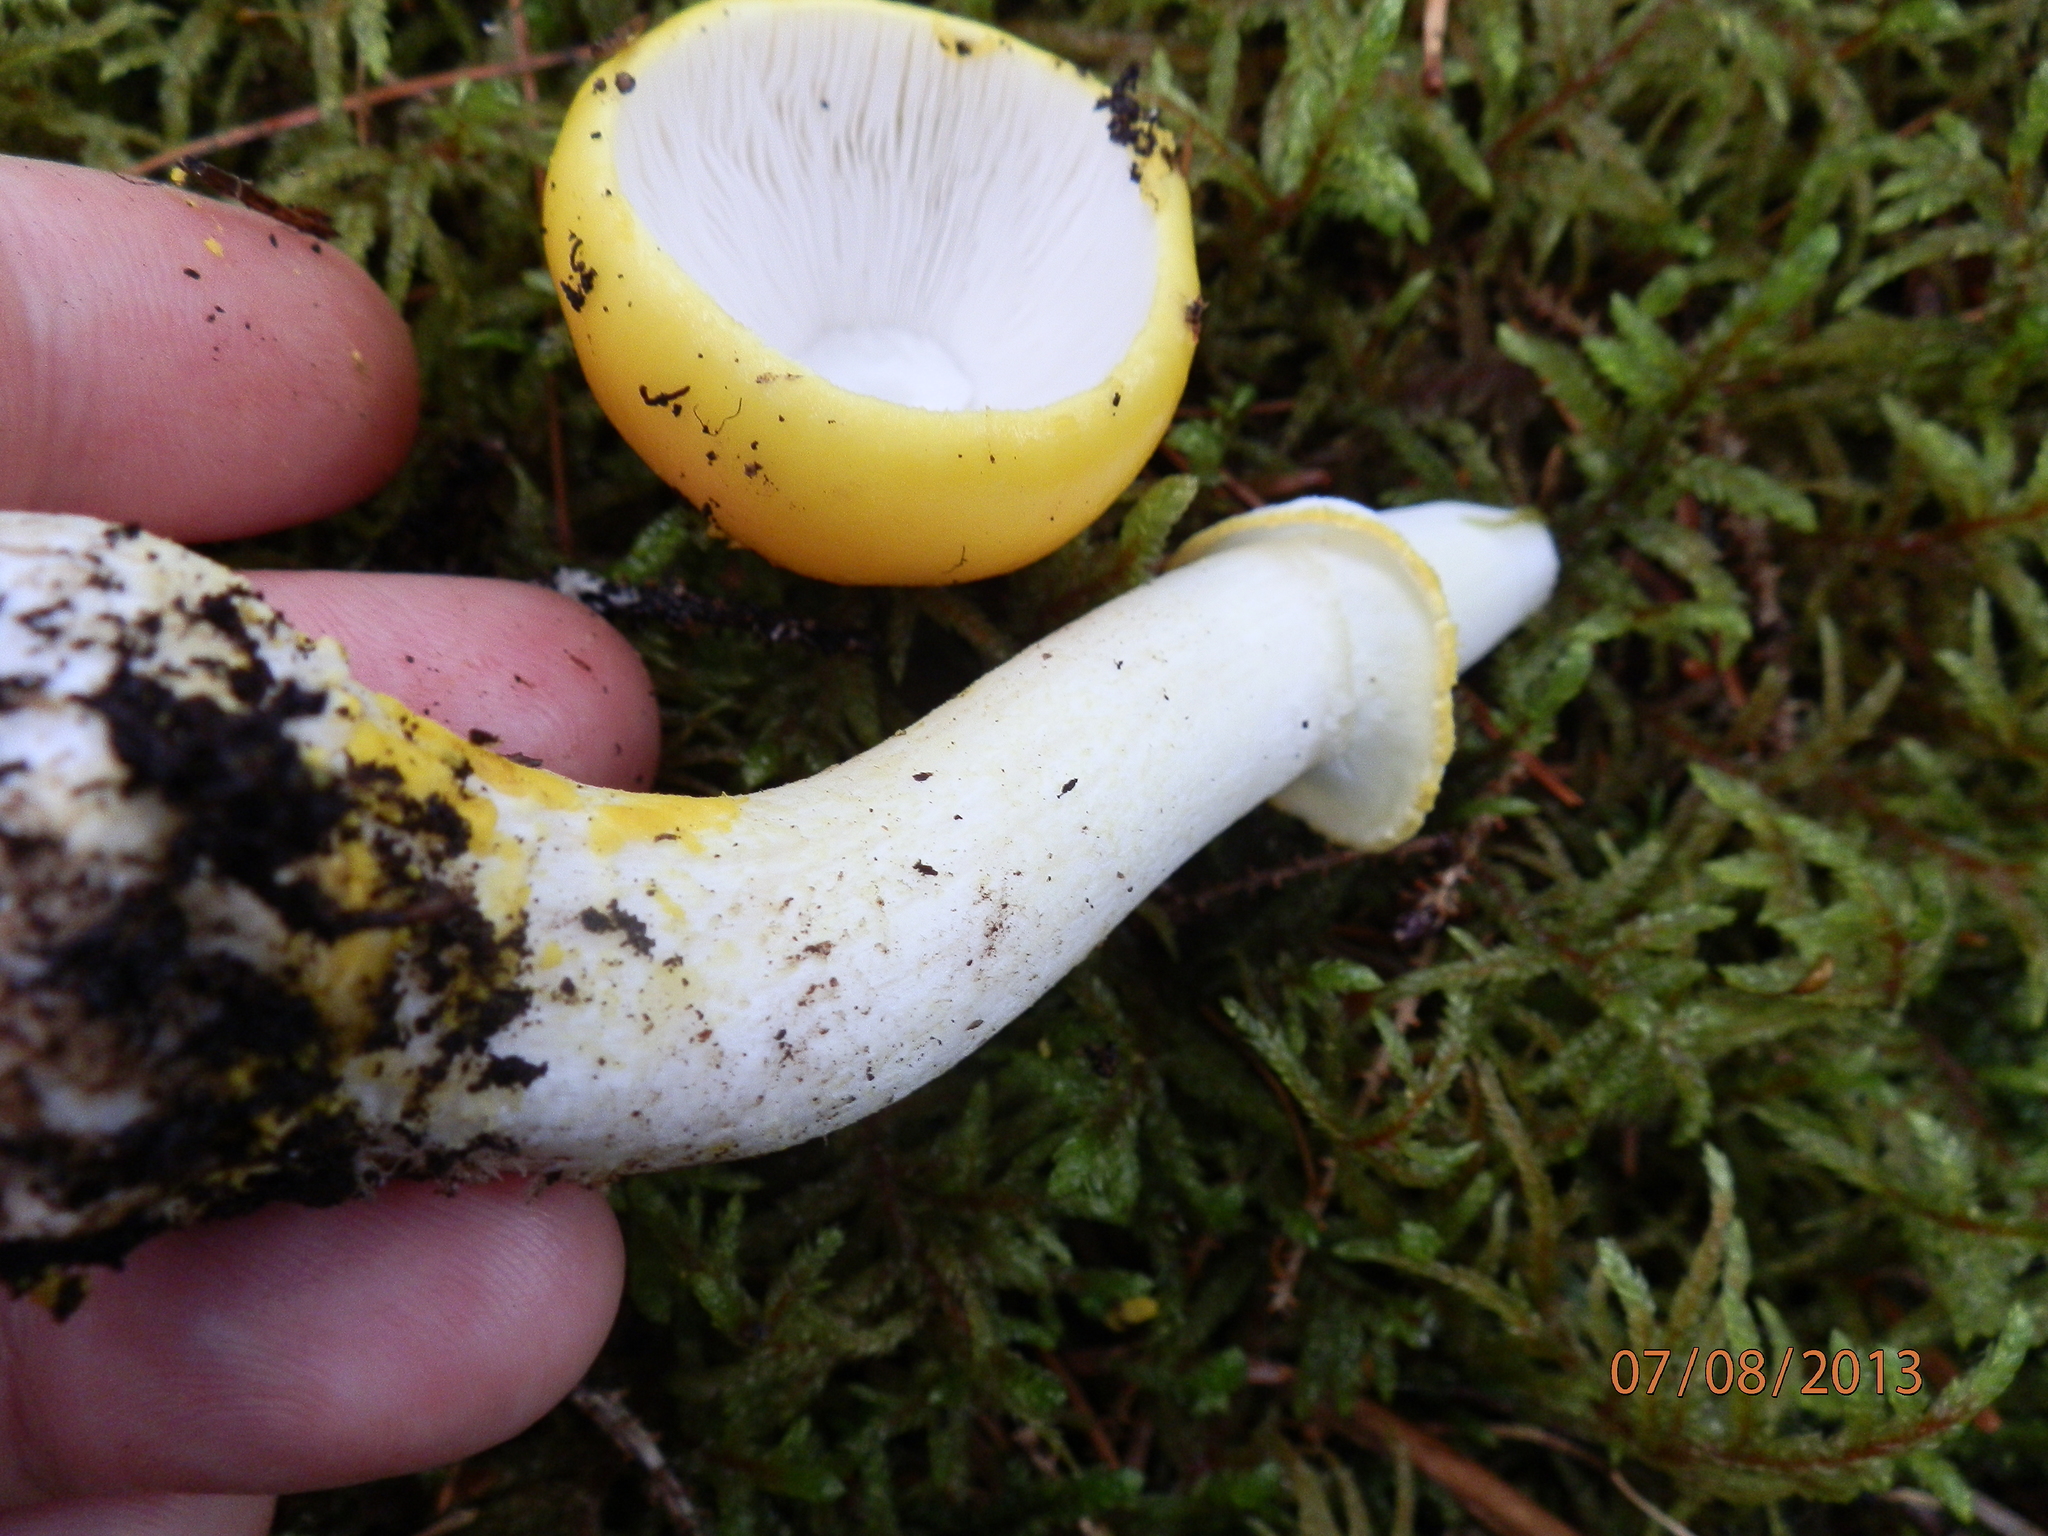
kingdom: Fungi
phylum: Basidiomycota
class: Agaricomycetes
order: Agaricales
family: Amanitaceae
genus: Amanita
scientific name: Amanita elongata
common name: Peck's yellow dust amanita
